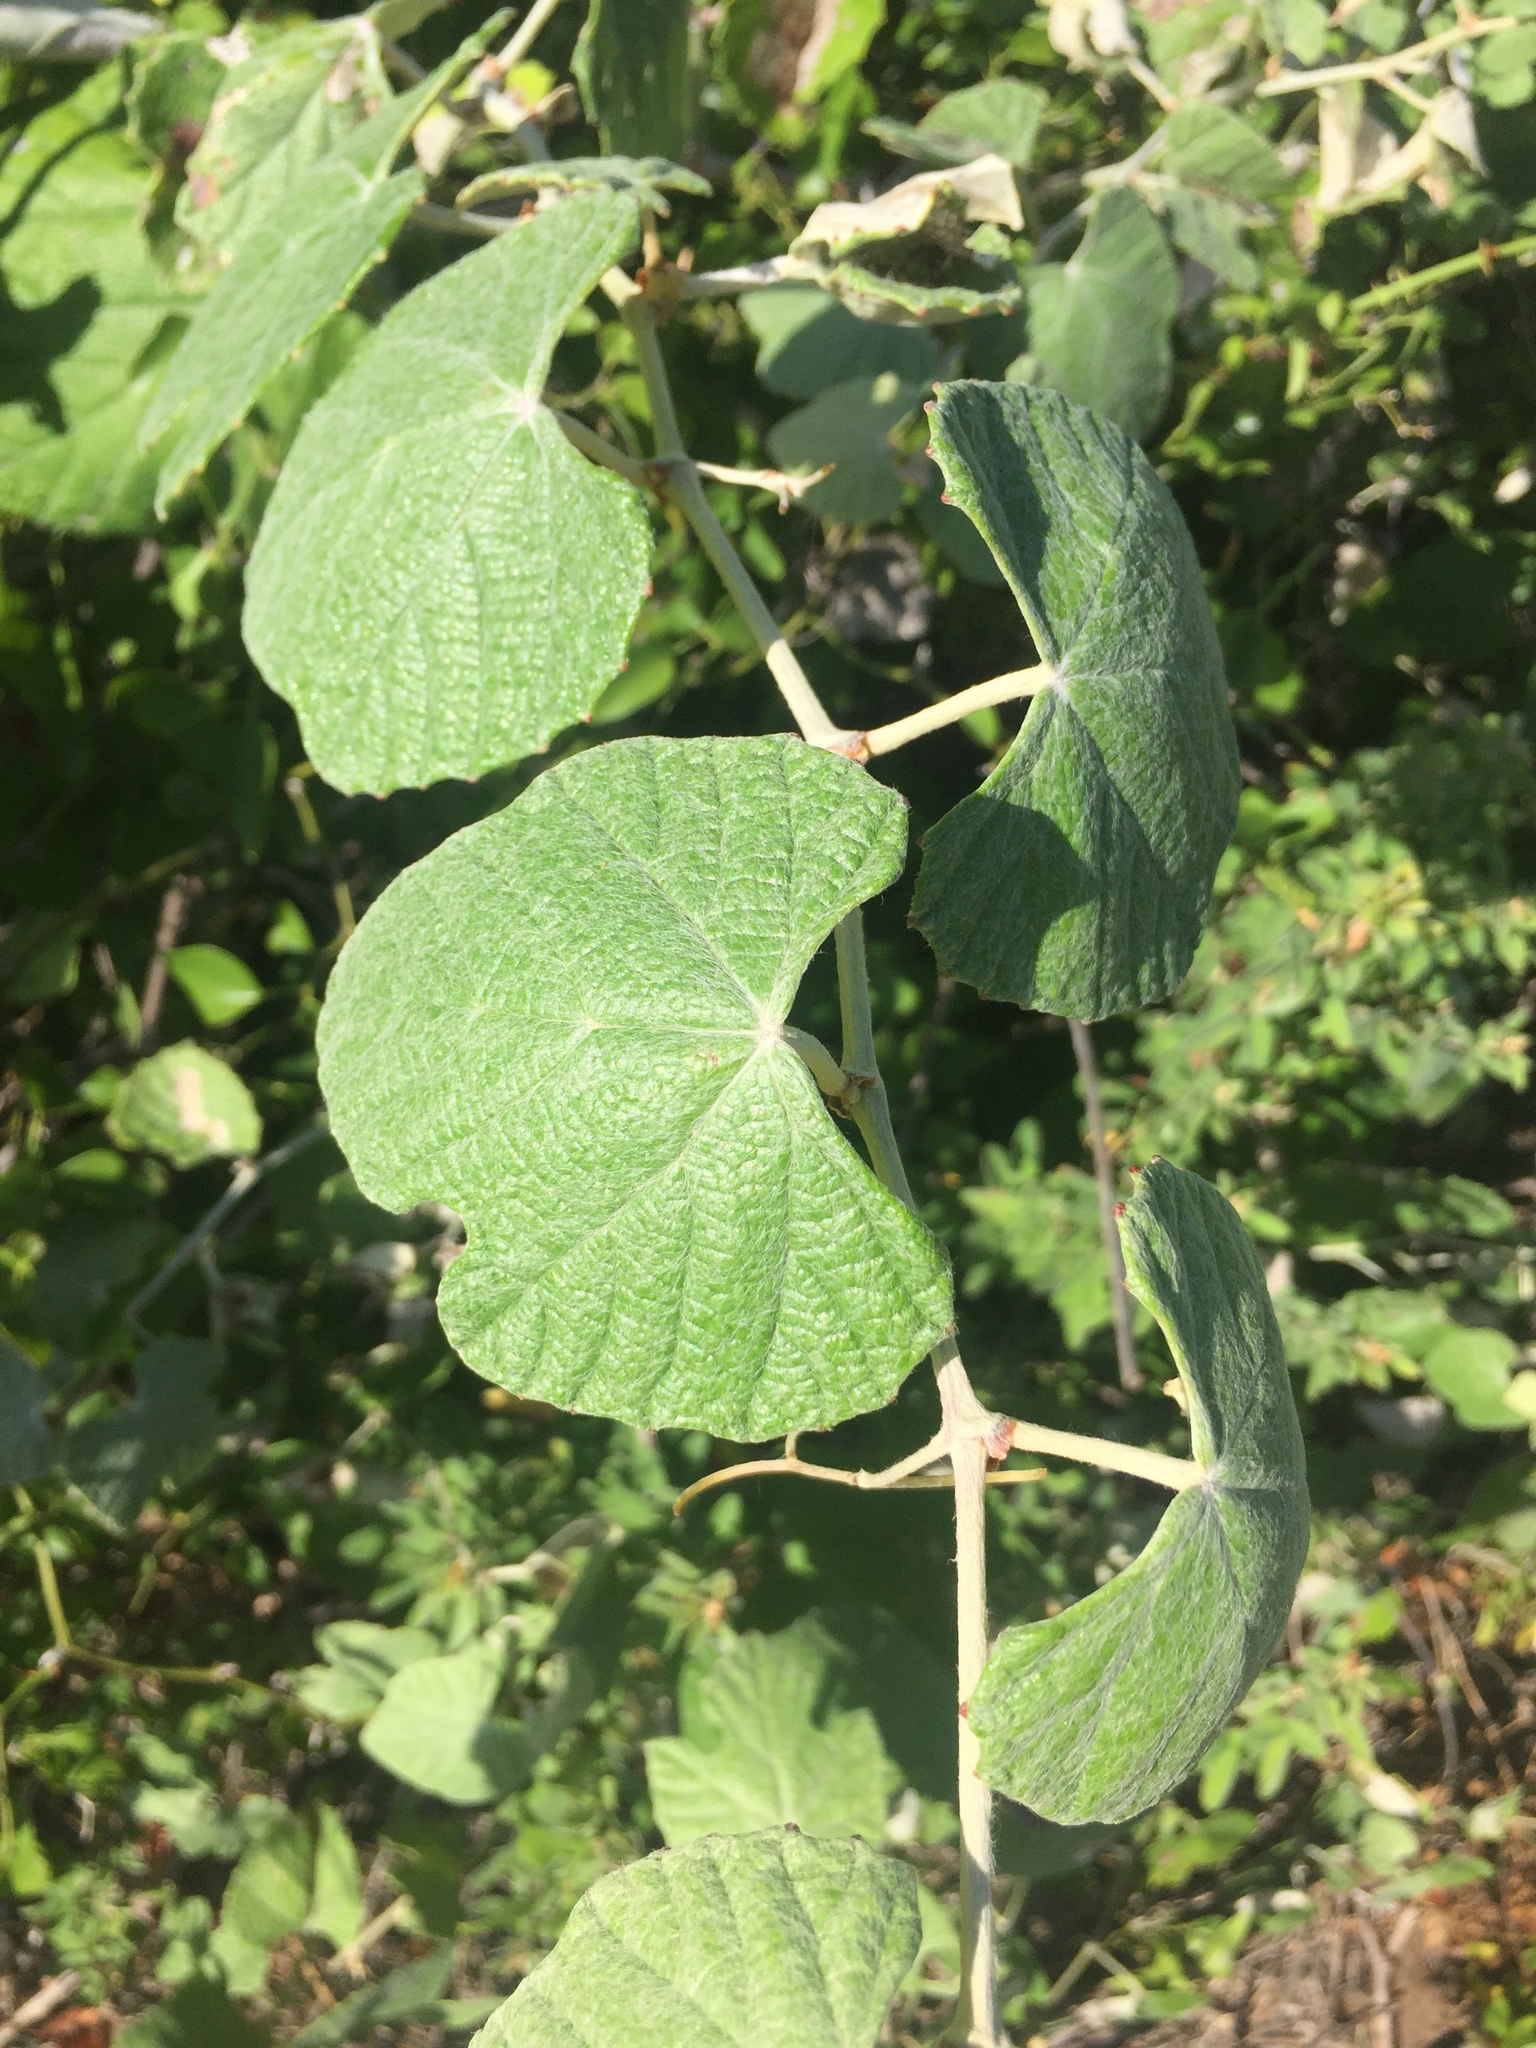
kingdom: Plantae
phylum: Tracheophyta
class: Magnoliopsida
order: Vitales
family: Vitaceae
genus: Vitis
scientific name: Vitis mustangensis
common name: Mustang grape
